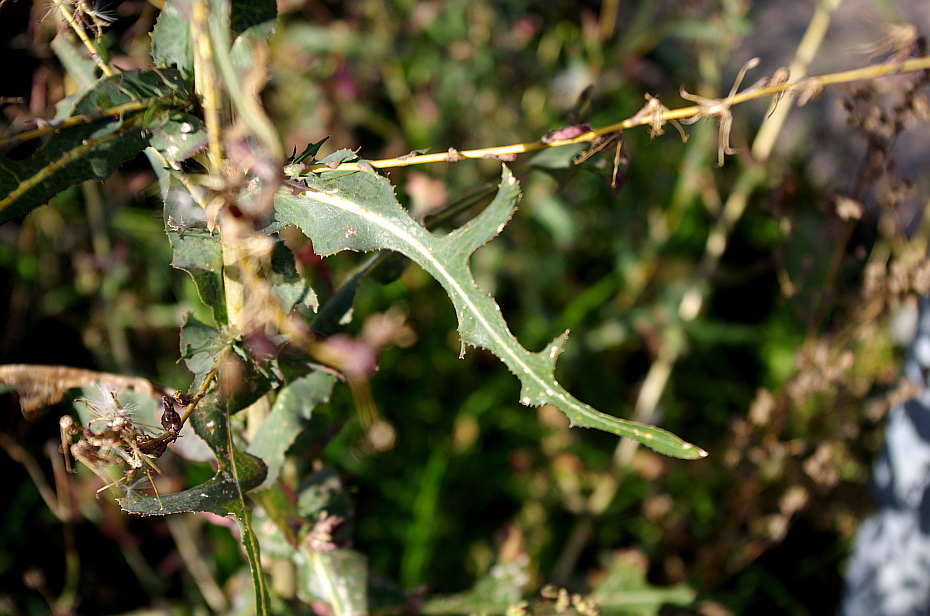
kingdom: Plantae
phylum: Tracheophyta
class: Magnoliopsida
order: Asterales
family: Asteraceae
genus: Lactuca
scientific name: Lactuca serriola
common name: Prickly lettuce
